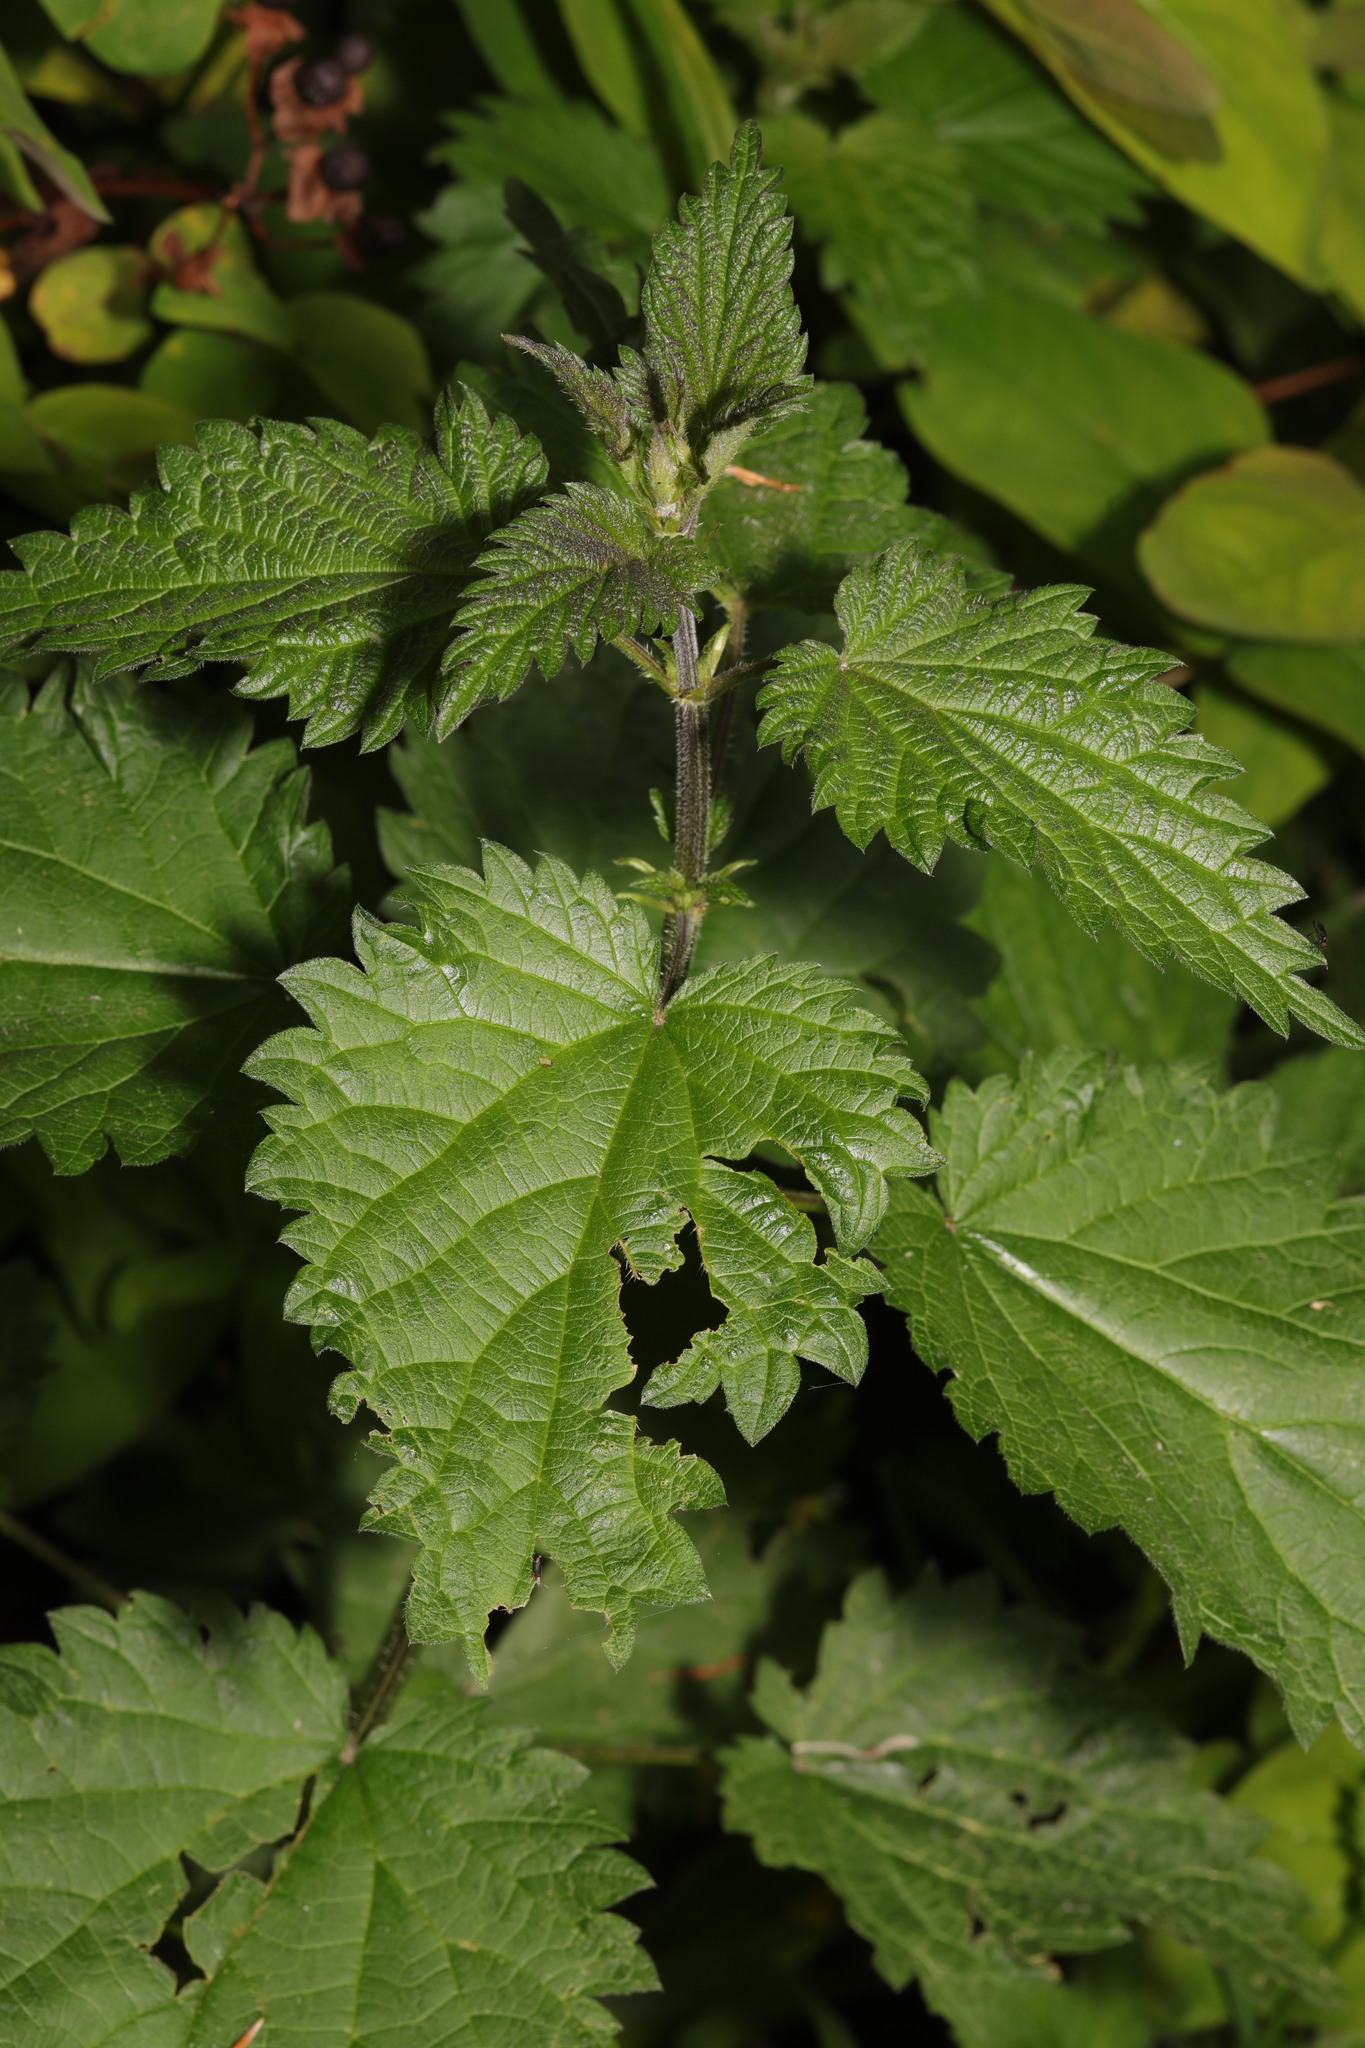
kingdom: Plantae
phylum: Tracheophyta
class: Magnoliopsida
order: Rosales
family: Urticaceae
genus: Urtica
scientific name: Urtica dioica
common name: Common nettle
